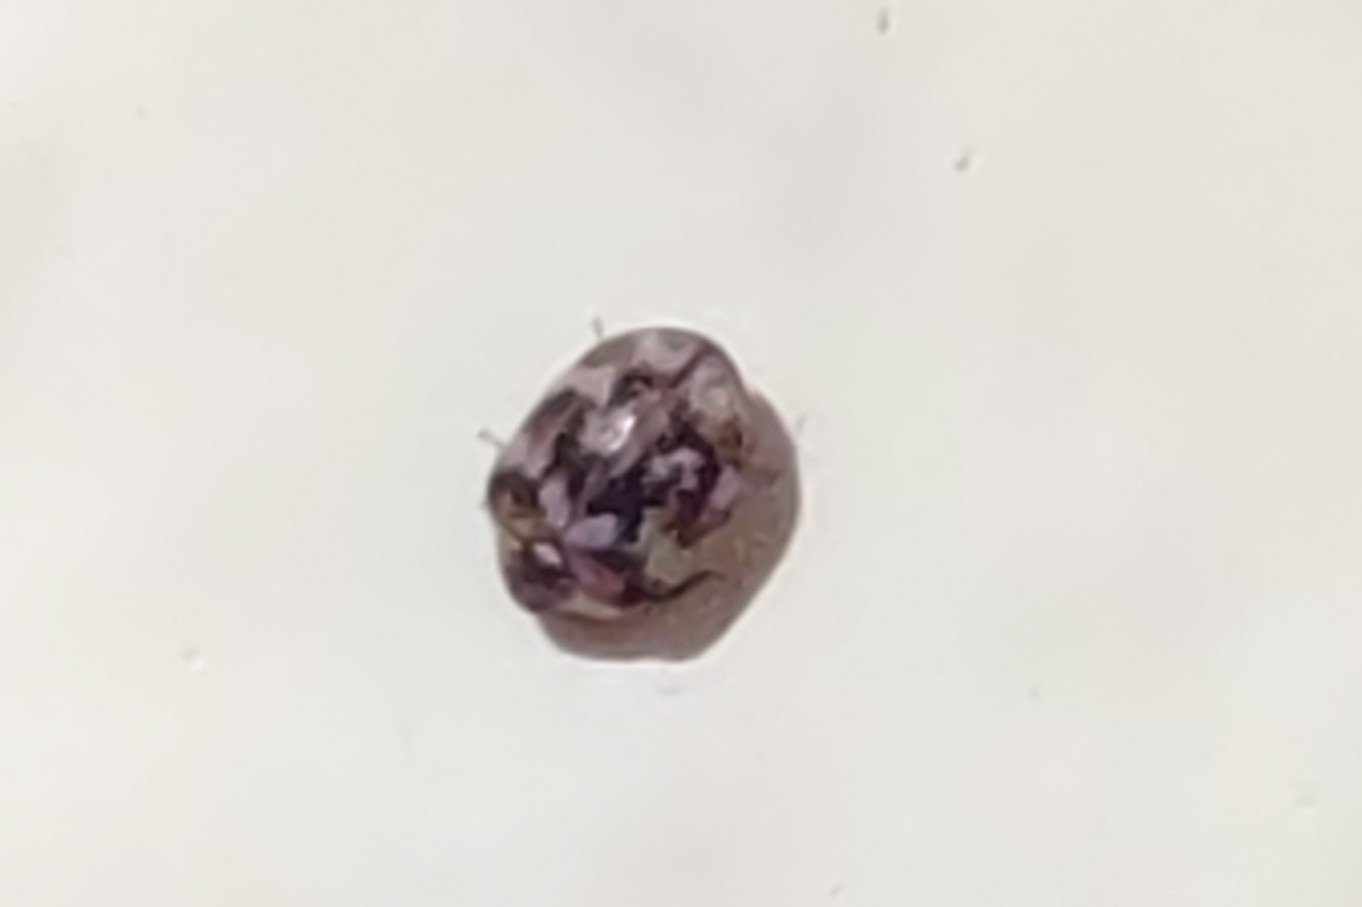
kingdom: Animalia
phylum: Arthropoda
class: Insecta
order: Coleoptera
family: Dermestidae
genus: Anthrenus
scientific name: Anthrenus verbasci
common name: Varied carpet beetle
